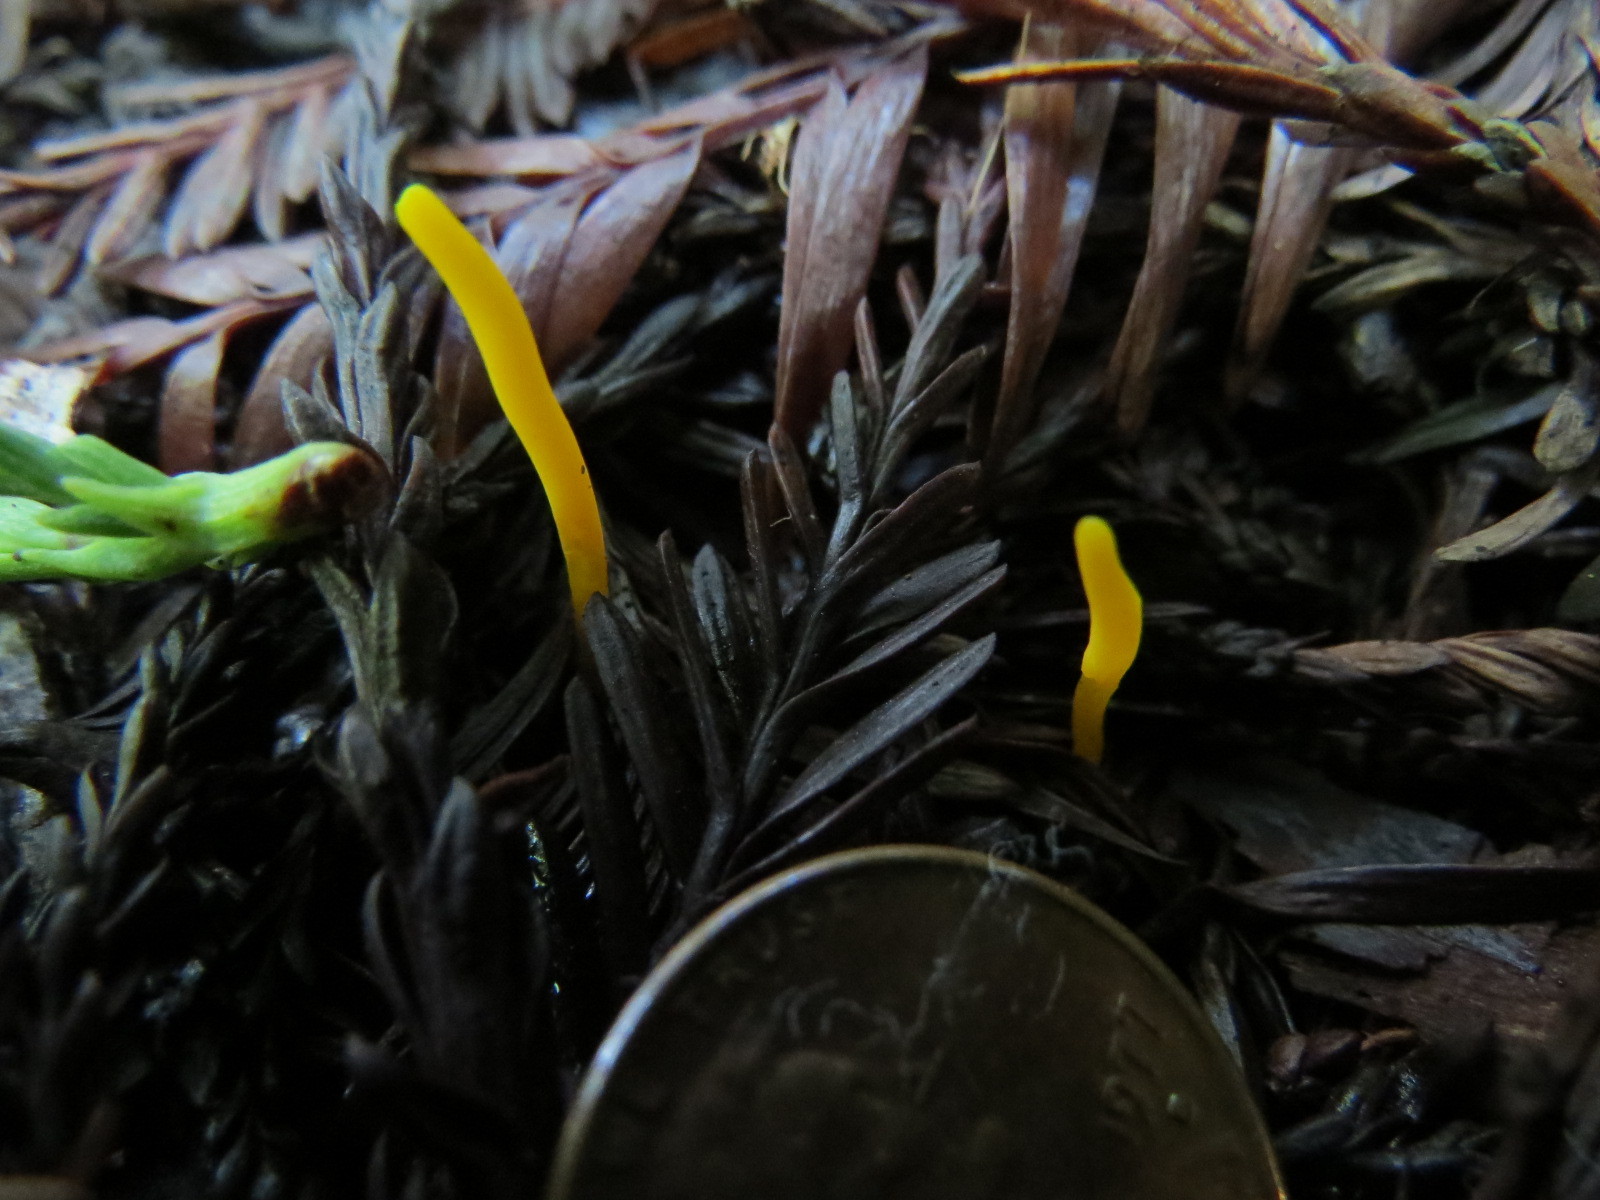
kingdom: Fungi
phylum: Basidiomycota
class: Agaricomycetes
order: Agaricales
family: Clavariaceae
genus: Clavulinopsis
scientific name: Clavulinopsis laeticolor
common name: Handsome club
